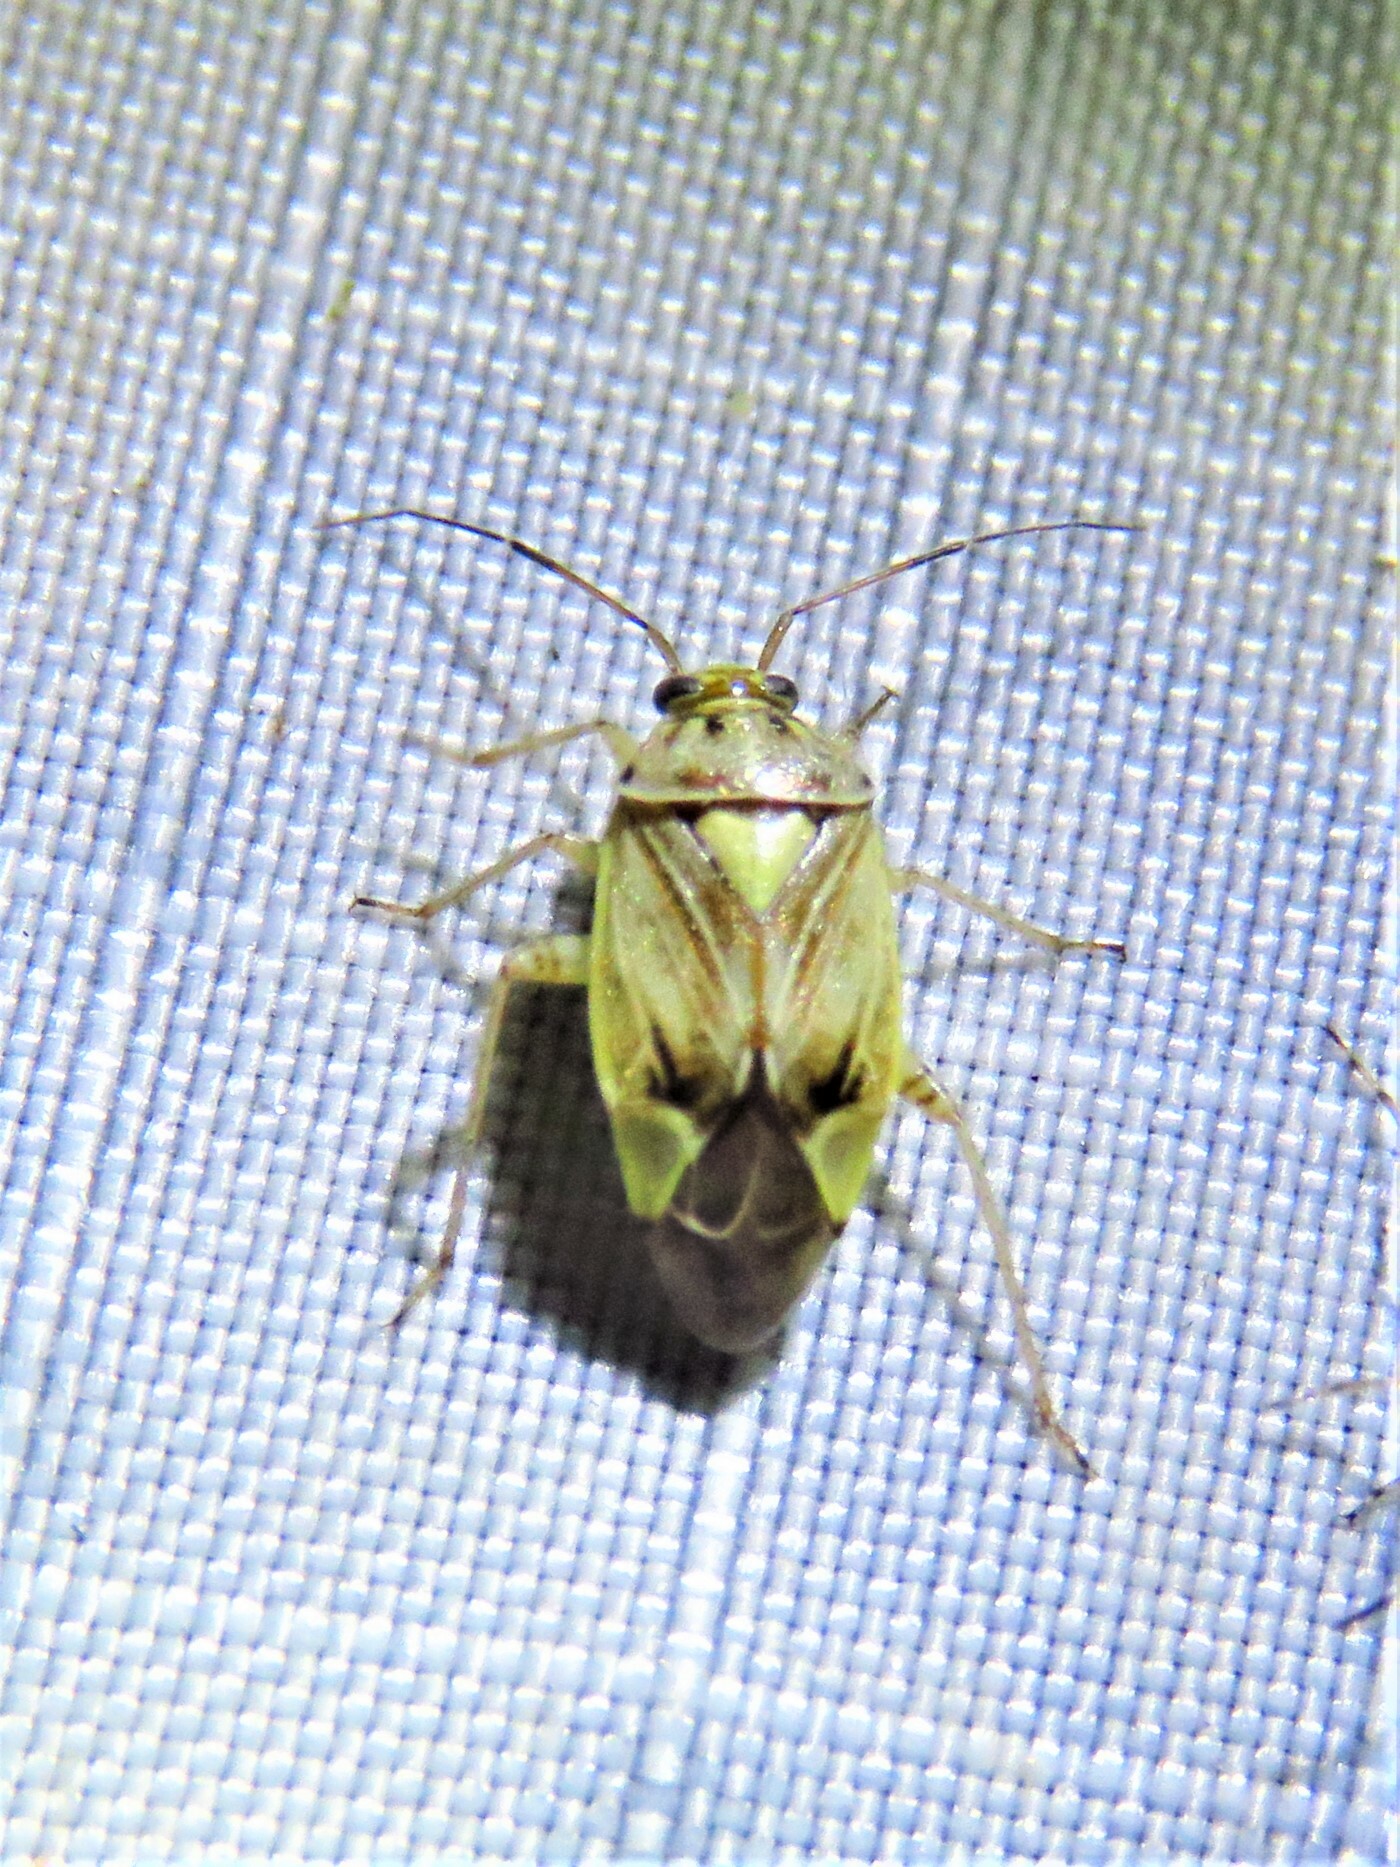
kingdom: Animalia
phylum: Arthropoda
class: Insecta
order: Hemiptera
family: Miridae
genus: Lygus
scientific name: Lygus lineolaris
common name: North american tarnished plant bug
